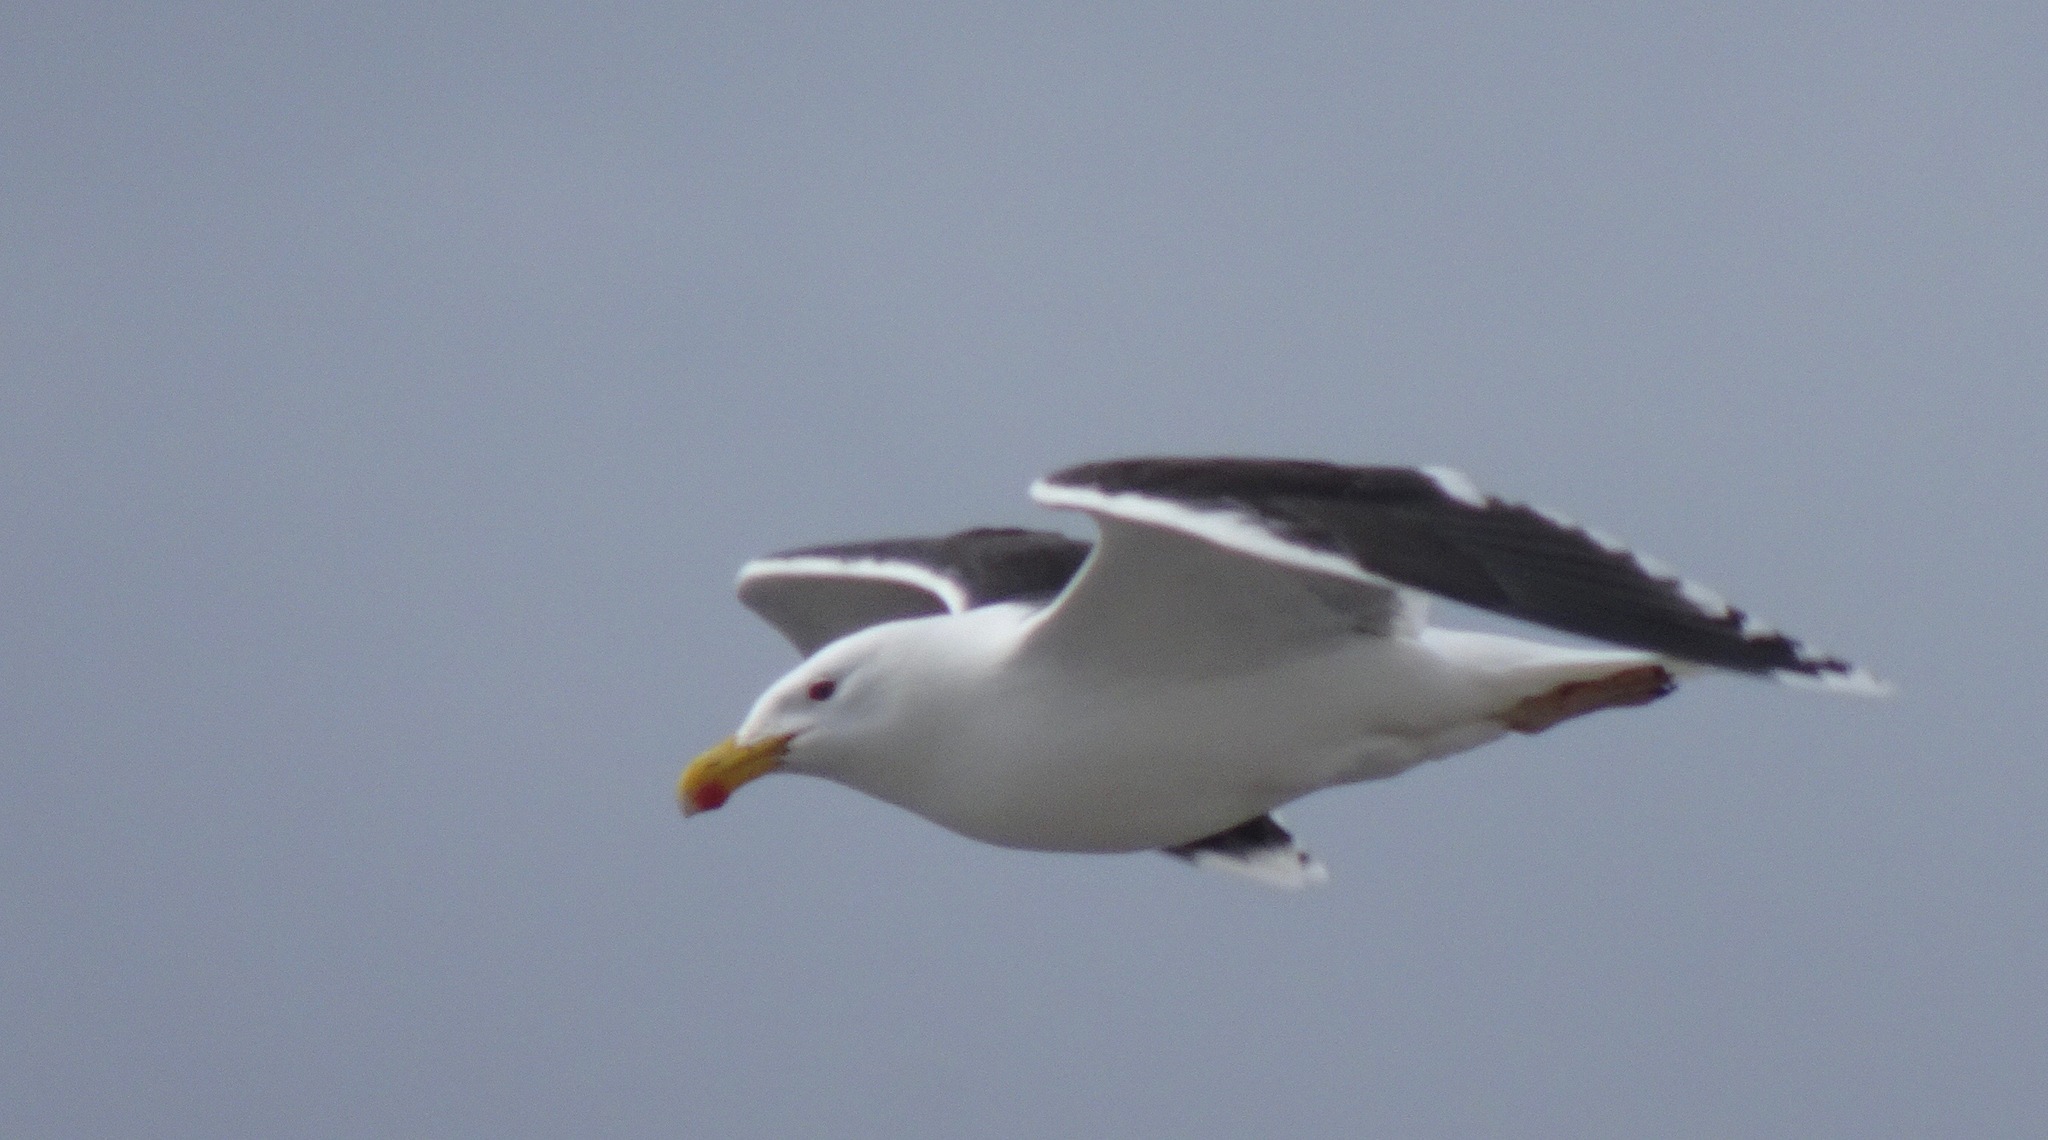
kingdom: Animalia
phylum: Chordata
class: Aves
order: Charadriiformes
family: Laridae
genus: Larus
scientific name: Larus marinus
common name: Great black-backed gull
